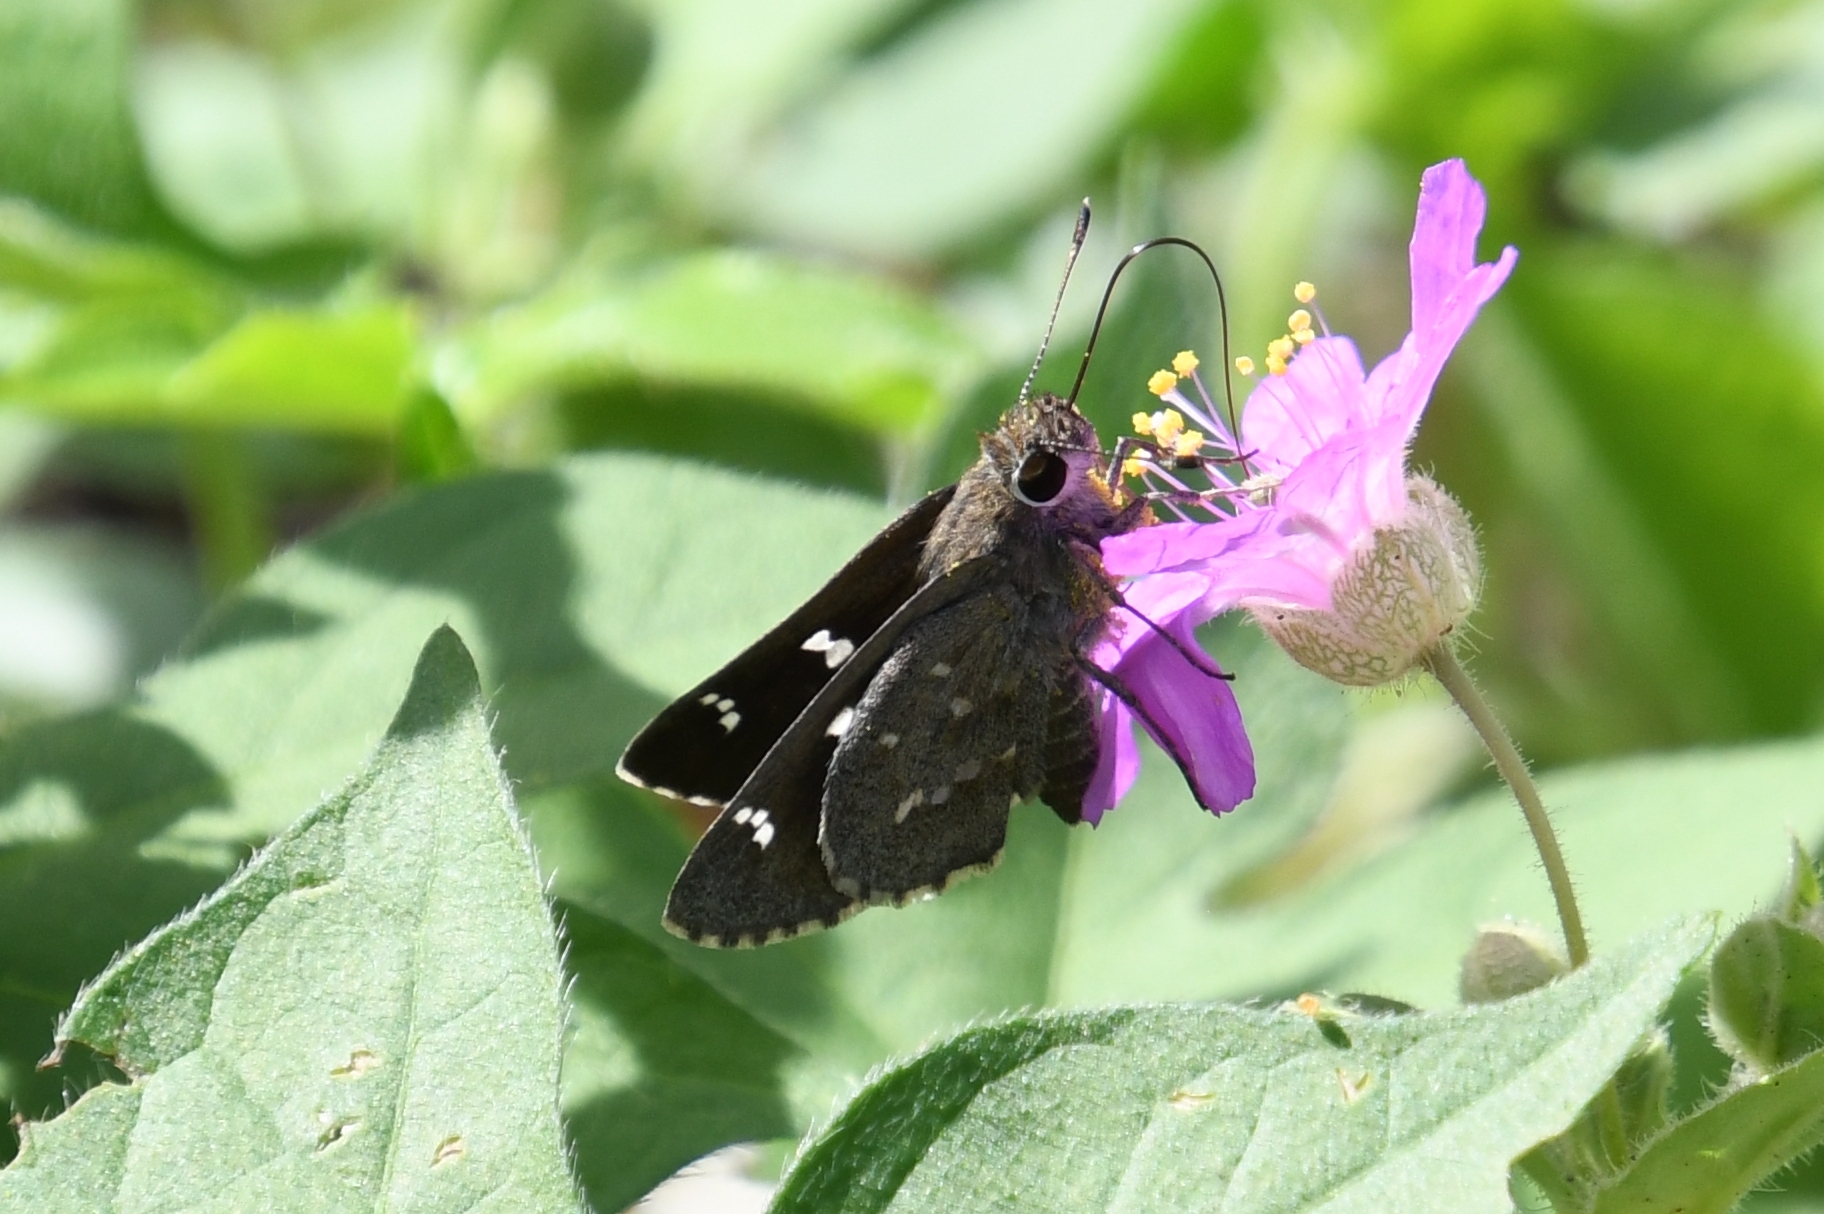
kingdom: Animalia
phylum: Arthropoda
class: Insecta
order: Lepidoptera
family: Hesperiidae
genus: Atrytonopsis
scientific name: Atrytonopsis ovinia
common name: Ovinia skipper
